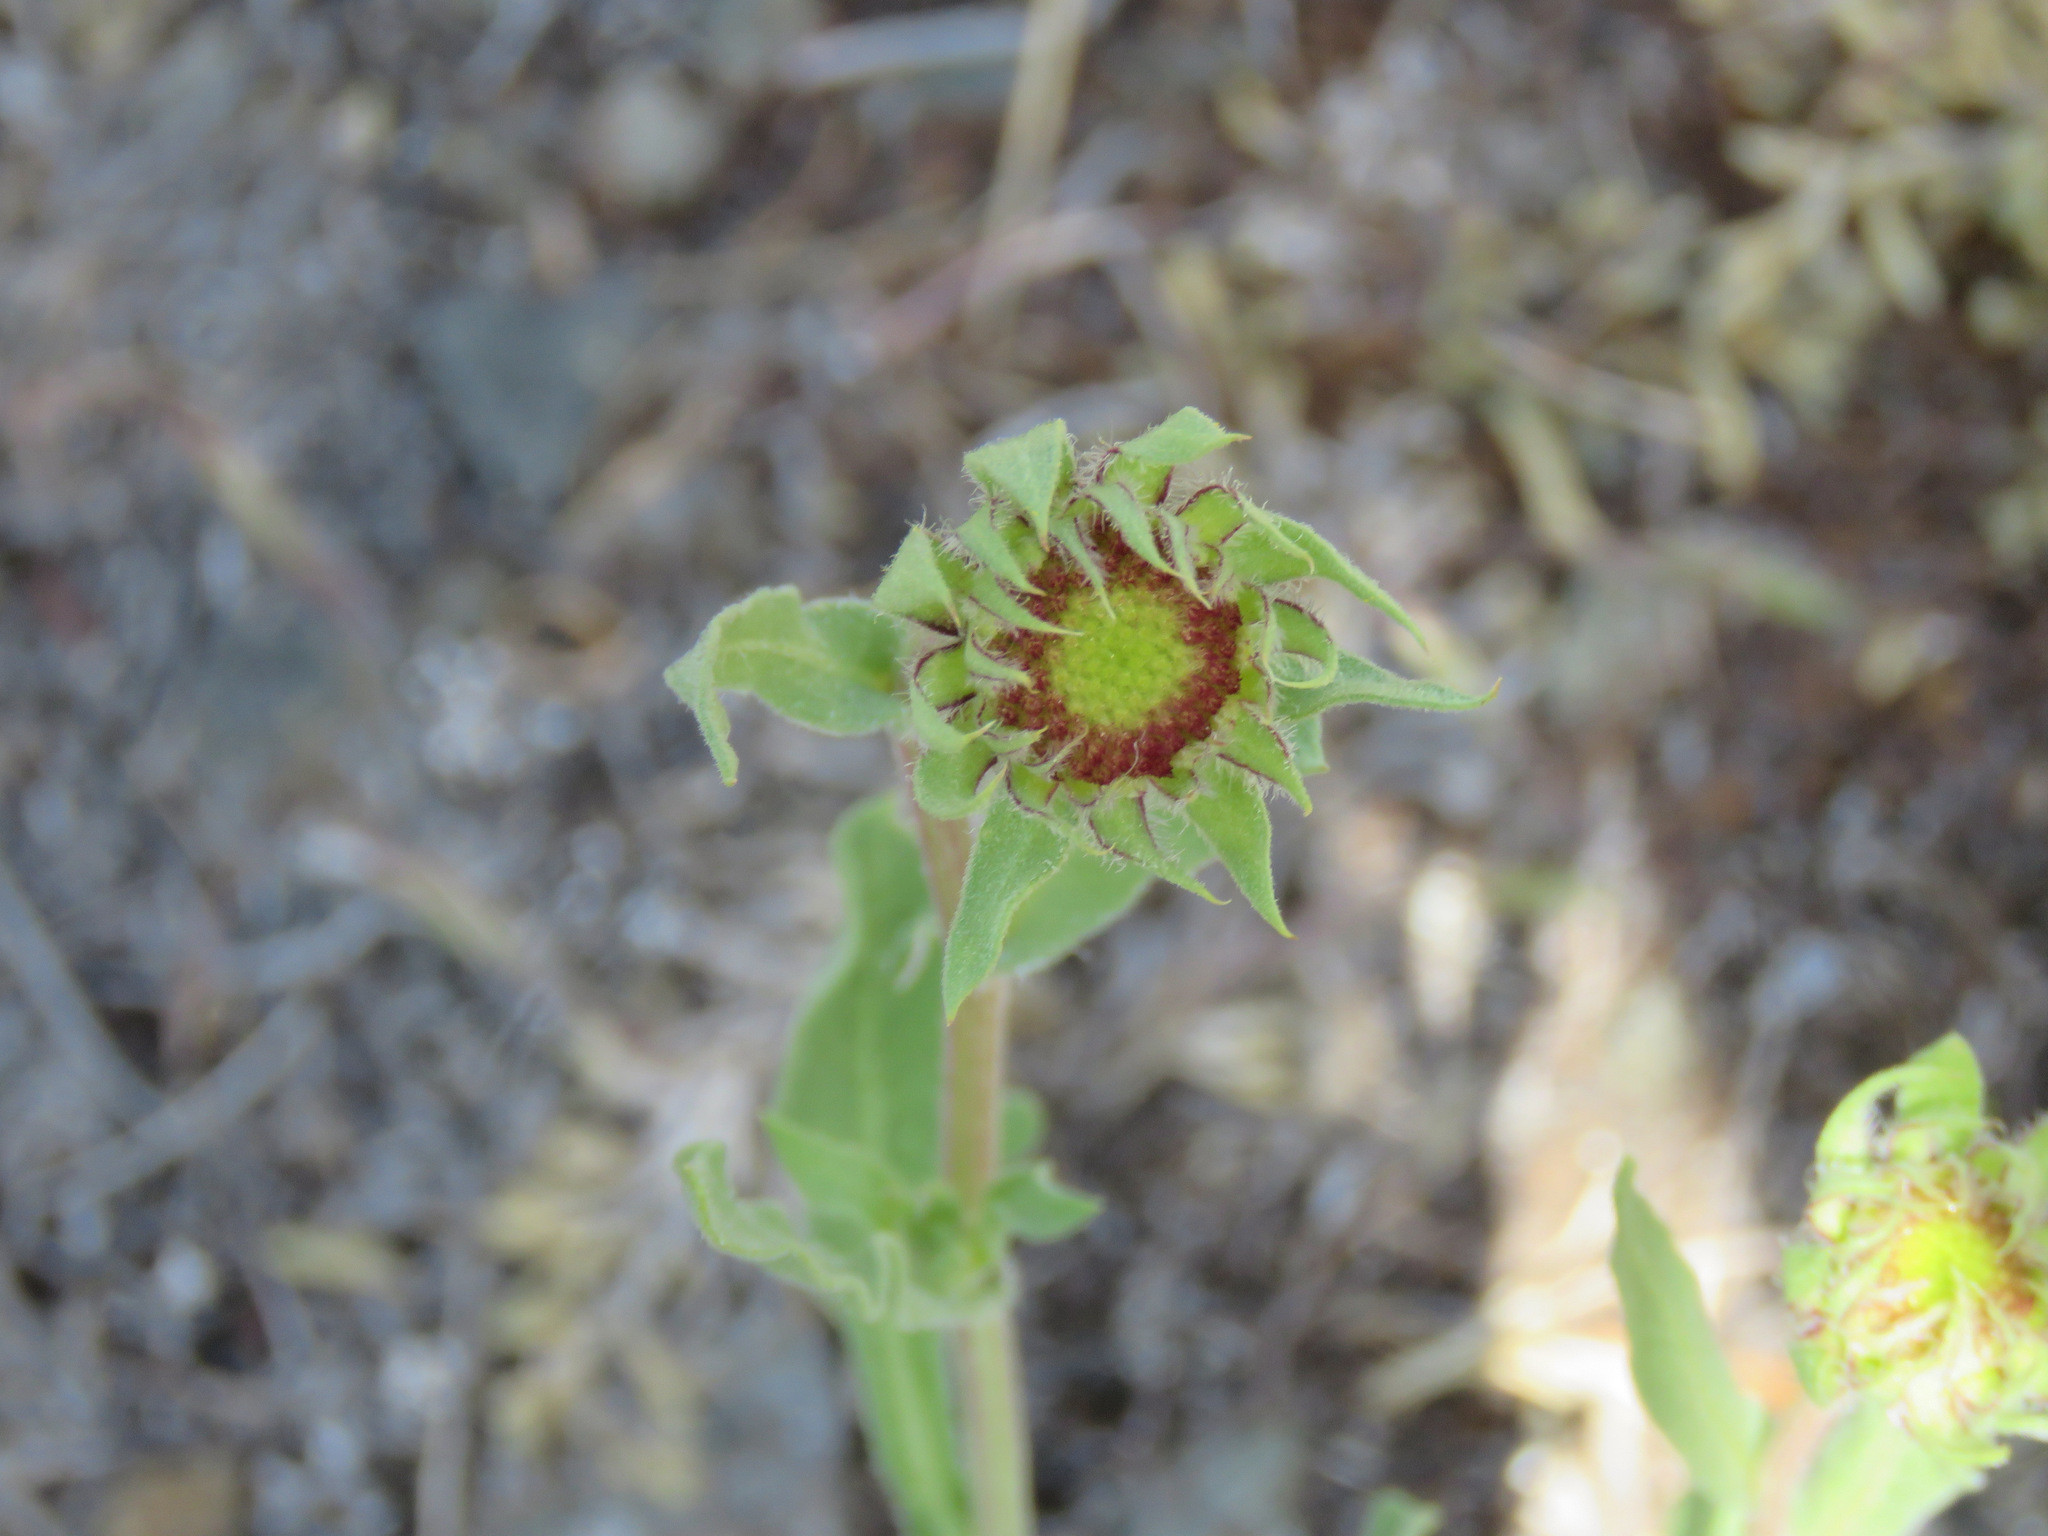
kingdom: Plantae
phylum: Tracheophyta
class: Magnoliopsida
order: Asterales
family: Asteraceae
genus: Gaillardia
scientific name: Gaillardia aristata
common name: Blanket-flower
